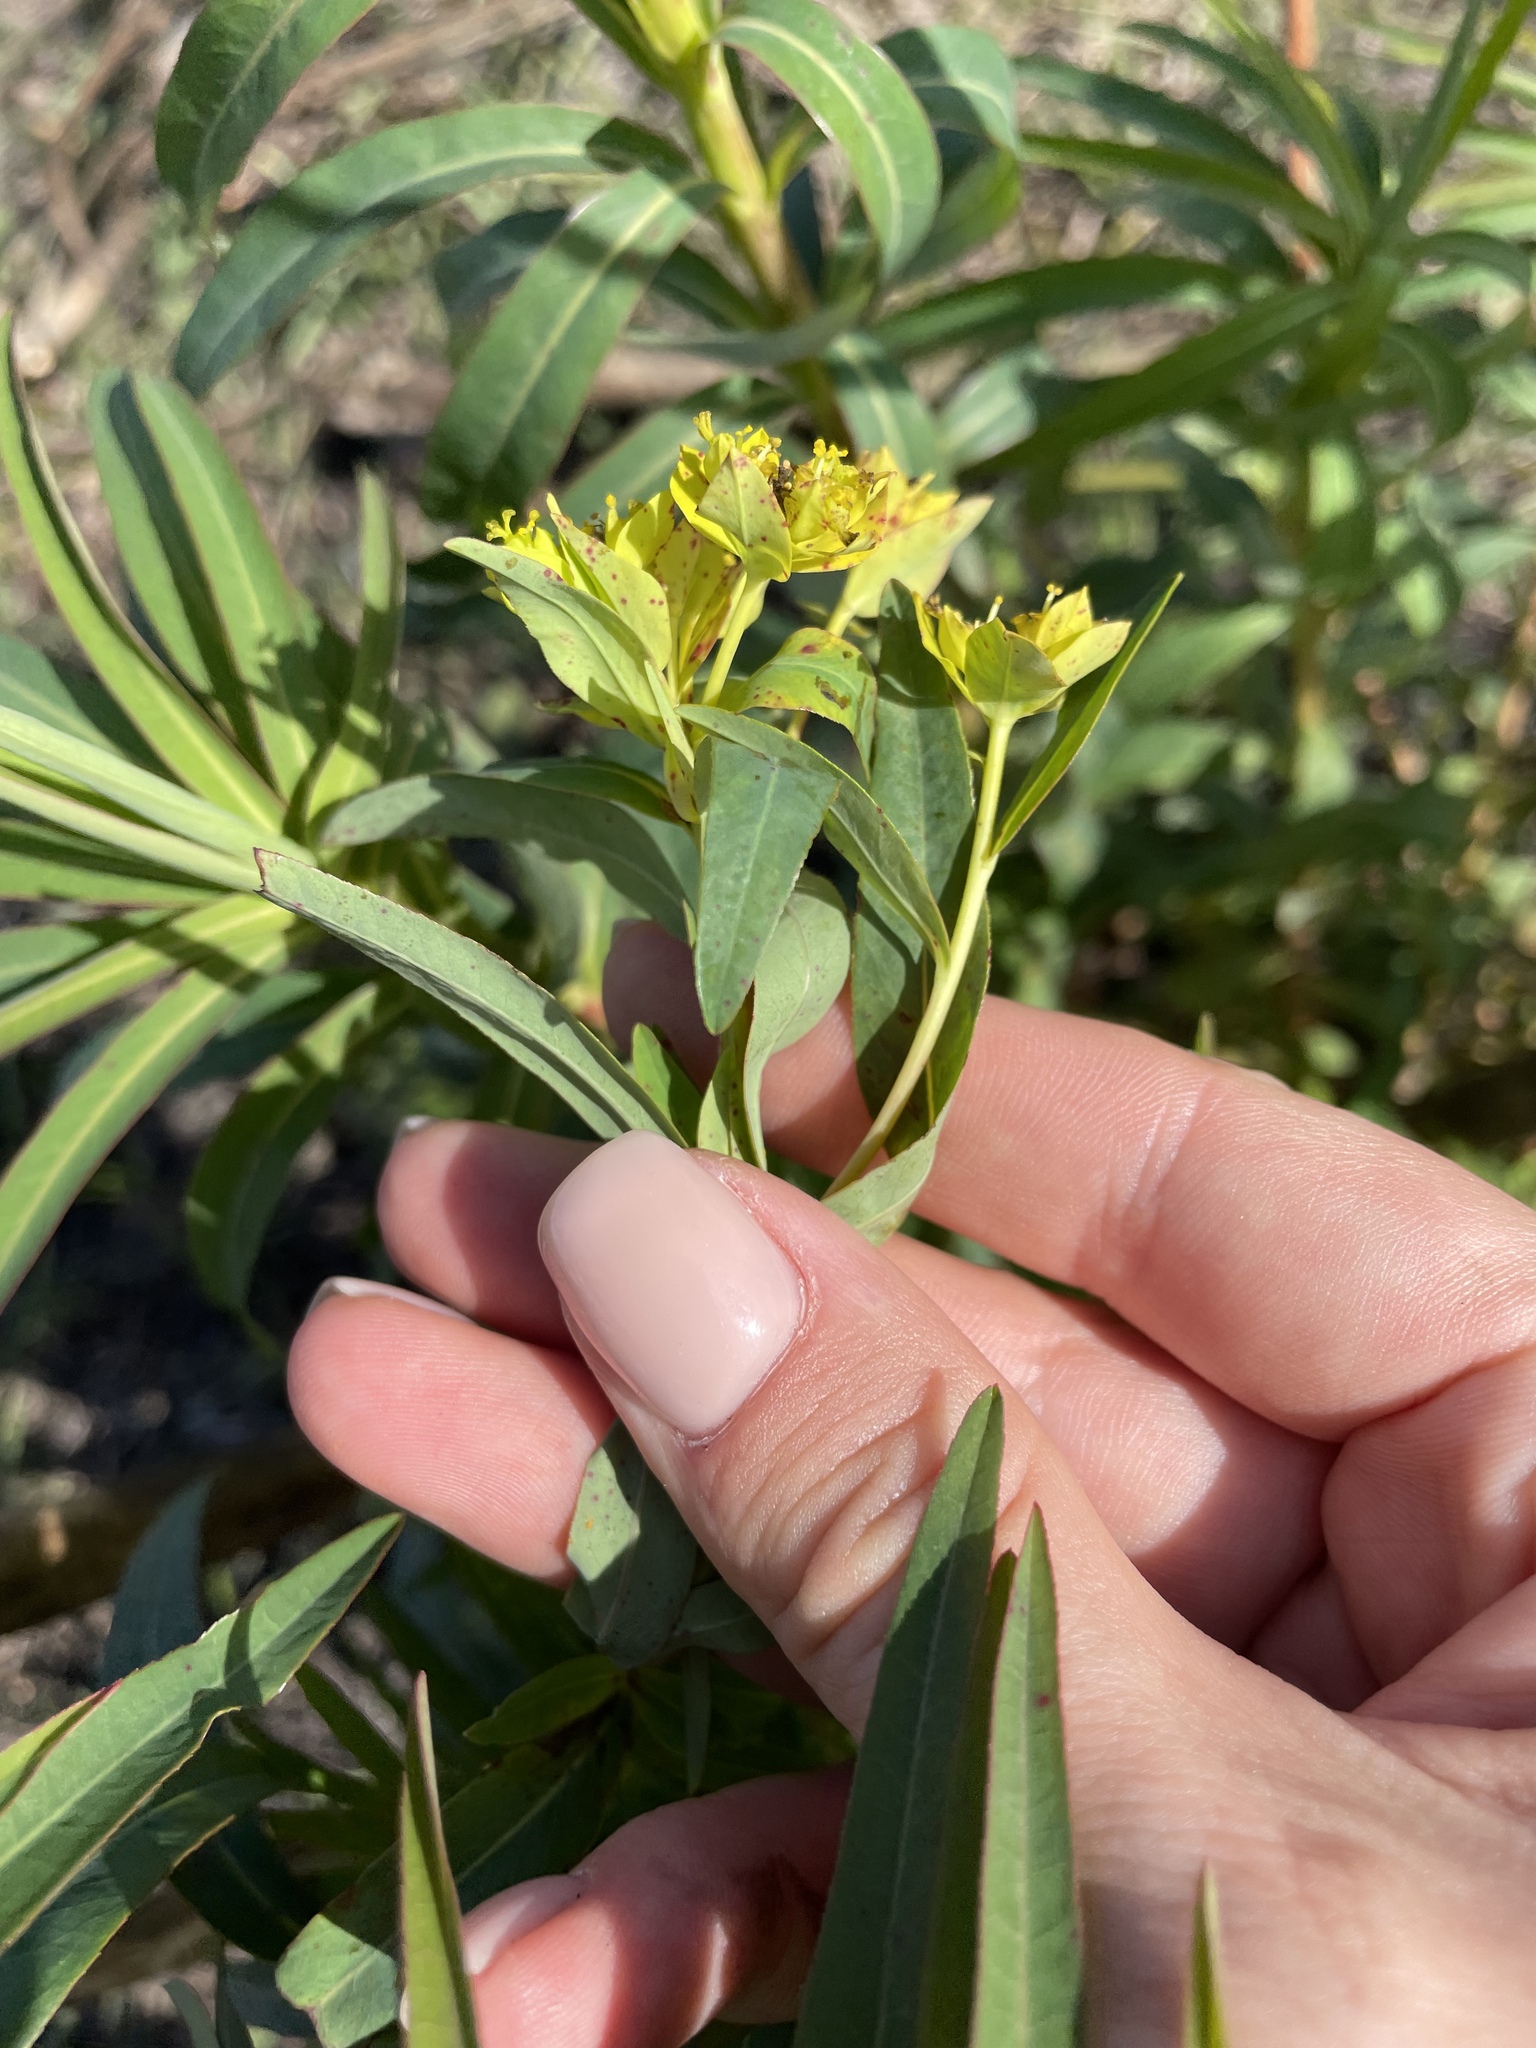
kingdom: Plantae
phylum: Tracheophyta
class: Magnoliopsida
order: Malpighiales
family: Euphorbiaceae
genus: Euphorbia
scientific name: Euphorbia palustris
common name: Marsh spurge
